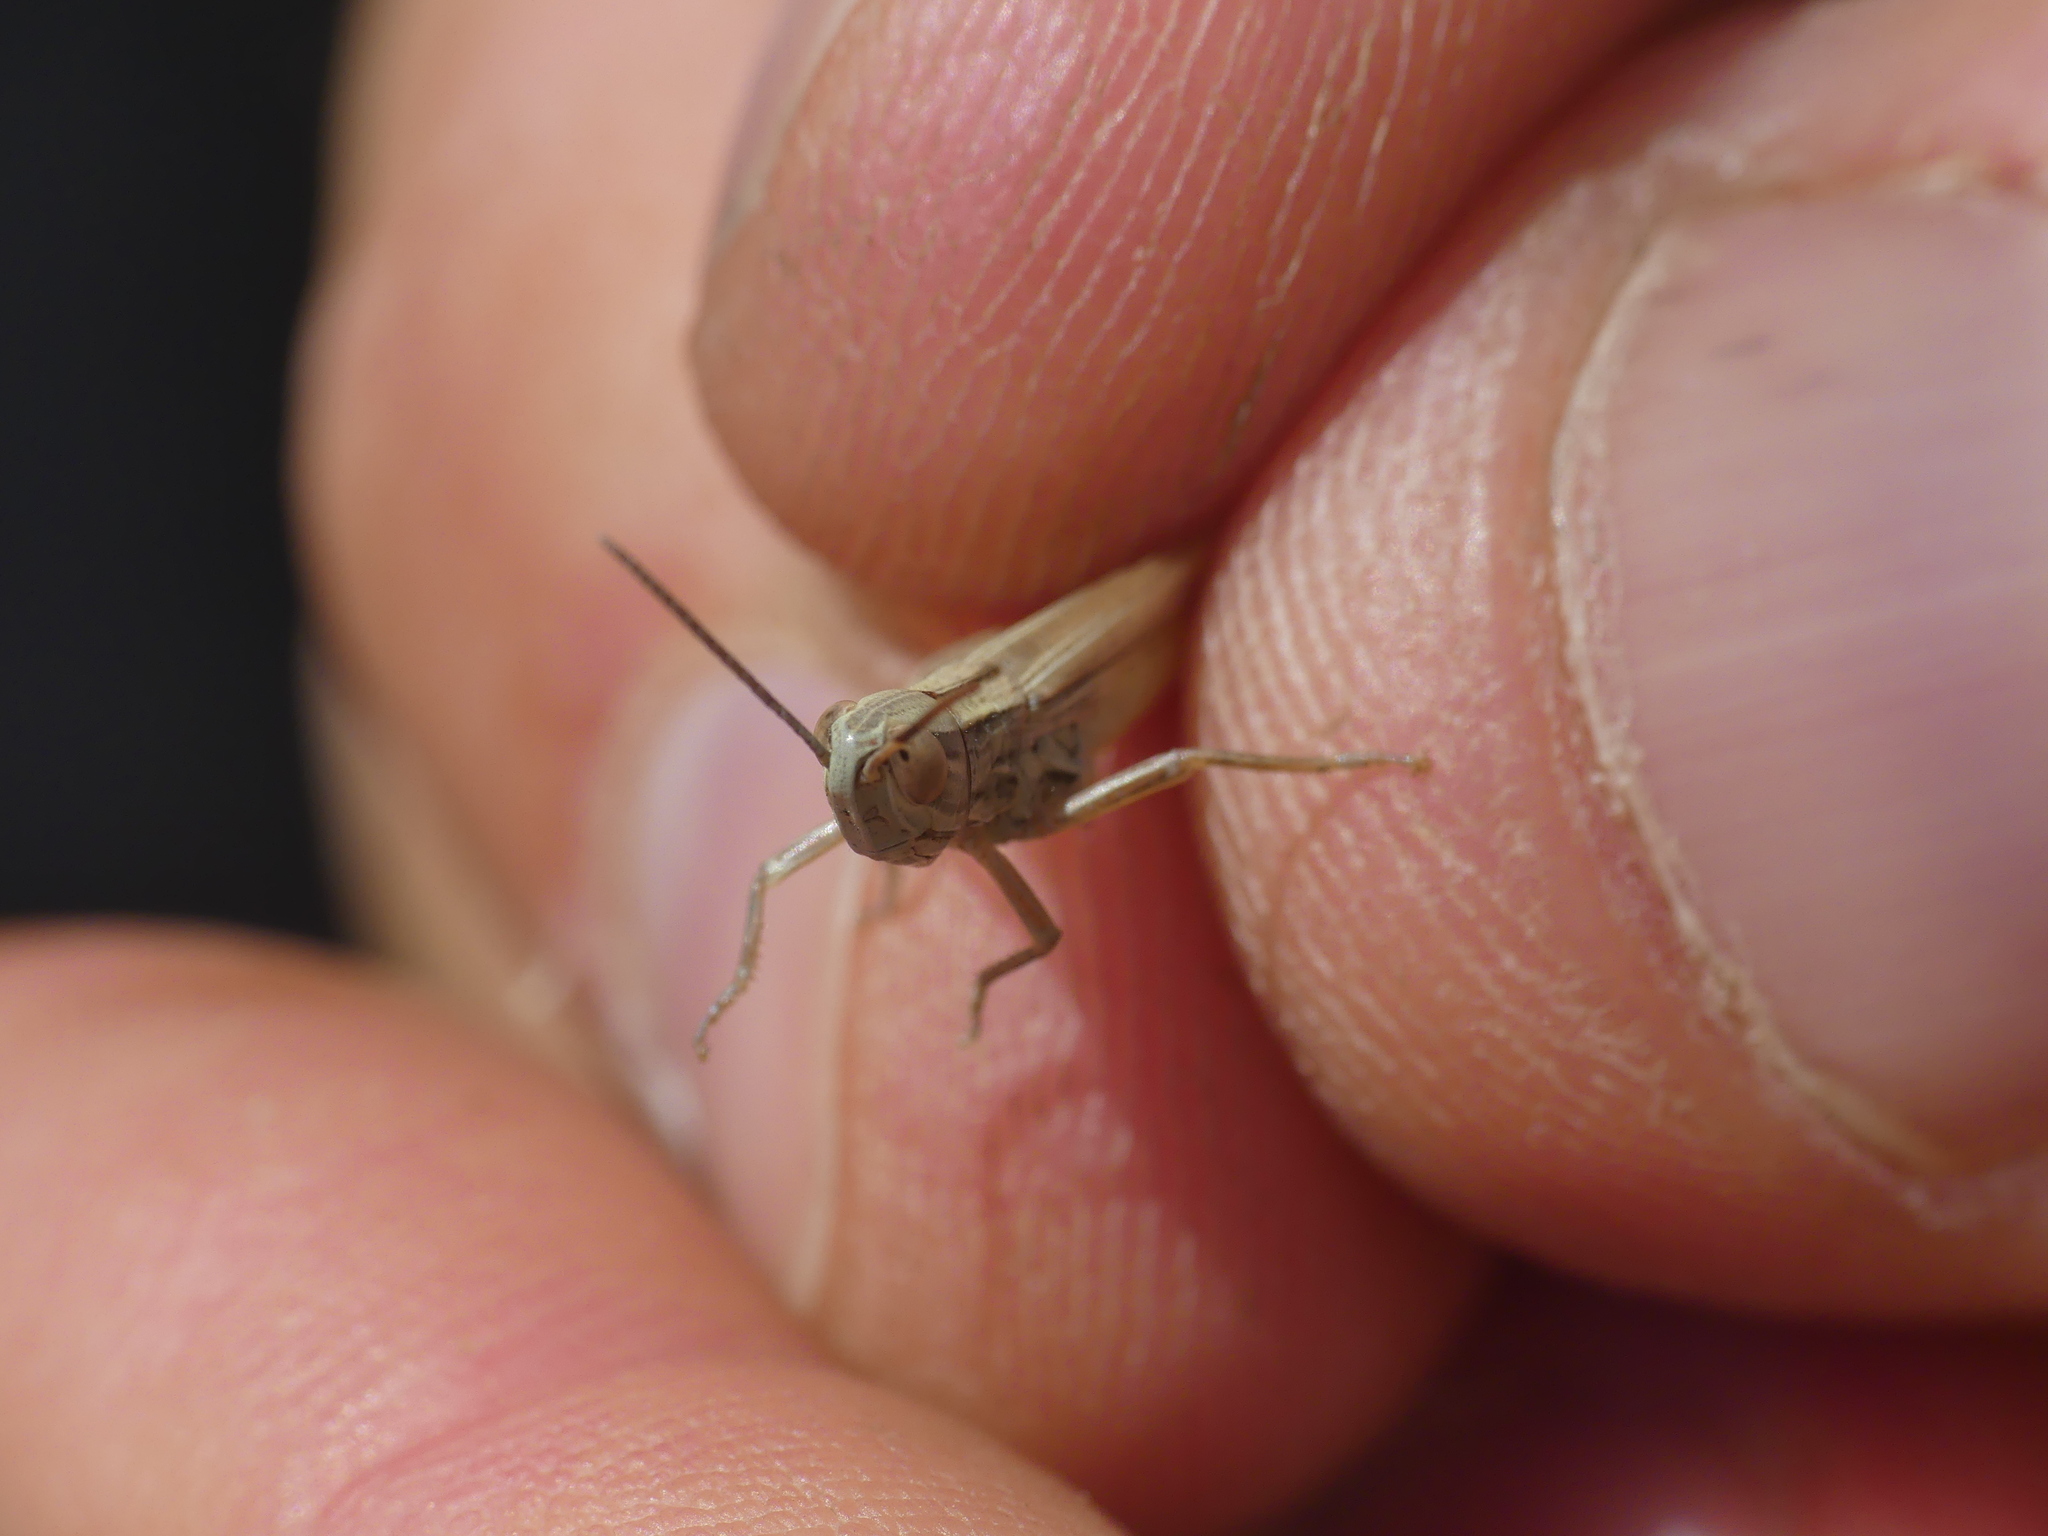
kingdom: Animalia
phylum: Arthropoda
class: Insecta
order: Orthoptera
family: Acrididae
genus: Euchorthippus
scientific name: Euchorthippus declivus
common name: Common straw grasshopper
